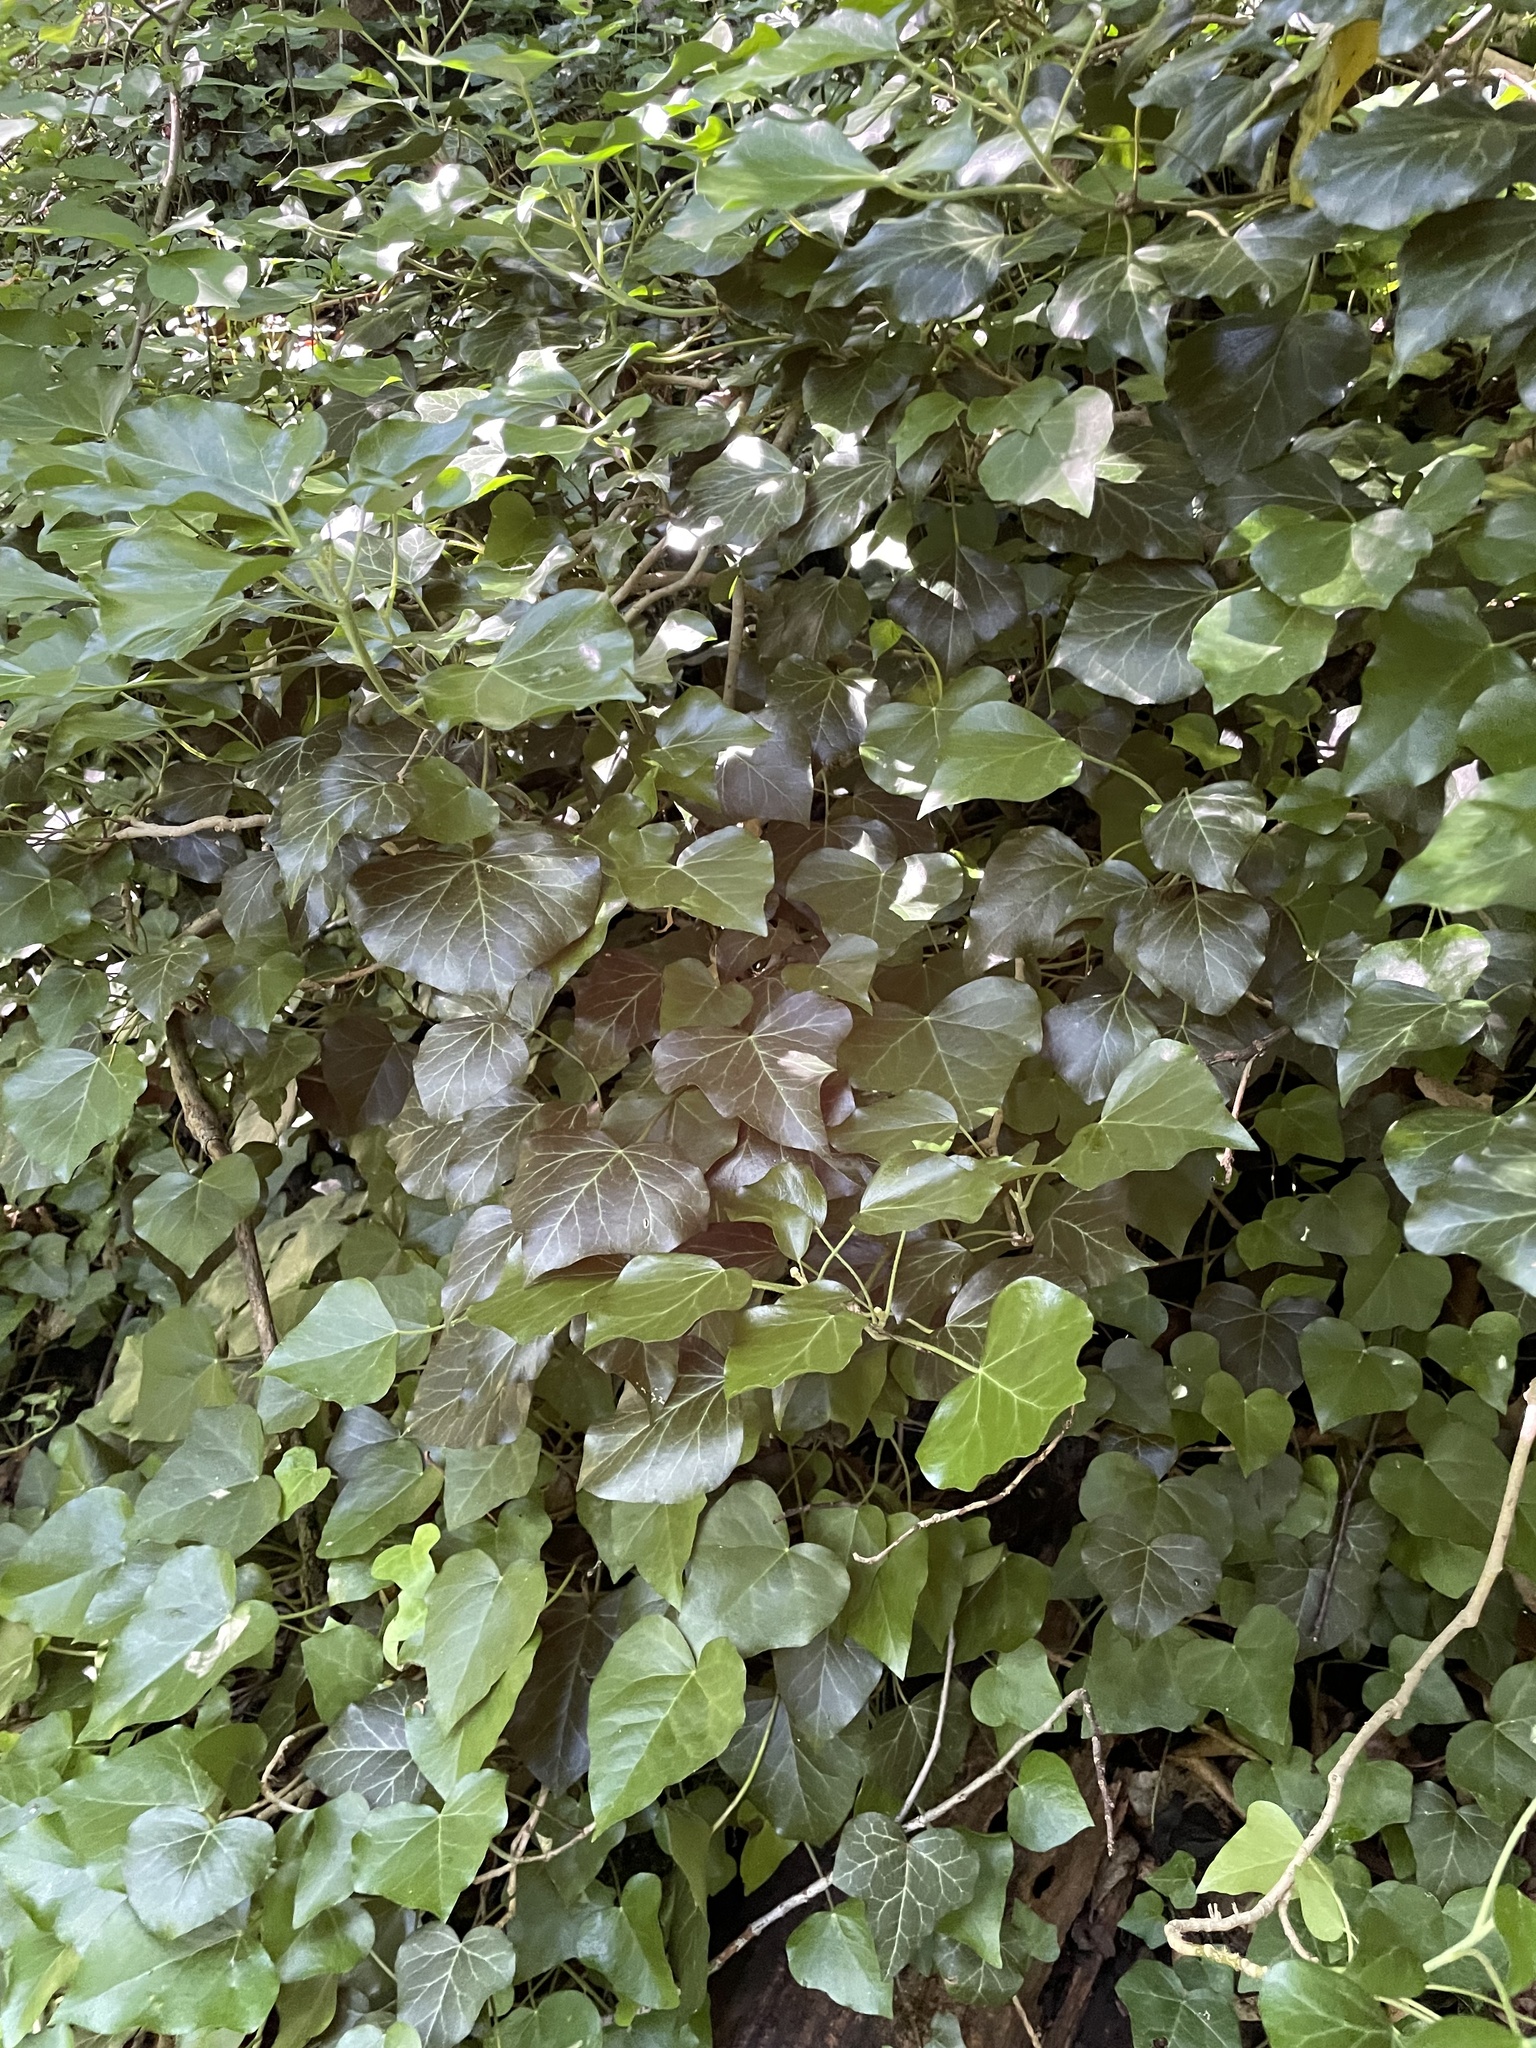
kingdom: Plantae
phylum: Tracheophyta
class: Magnoliopsida
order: Apiales
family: Araliaceae
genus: Hedera
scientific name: Hedera helix
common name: Ivy
